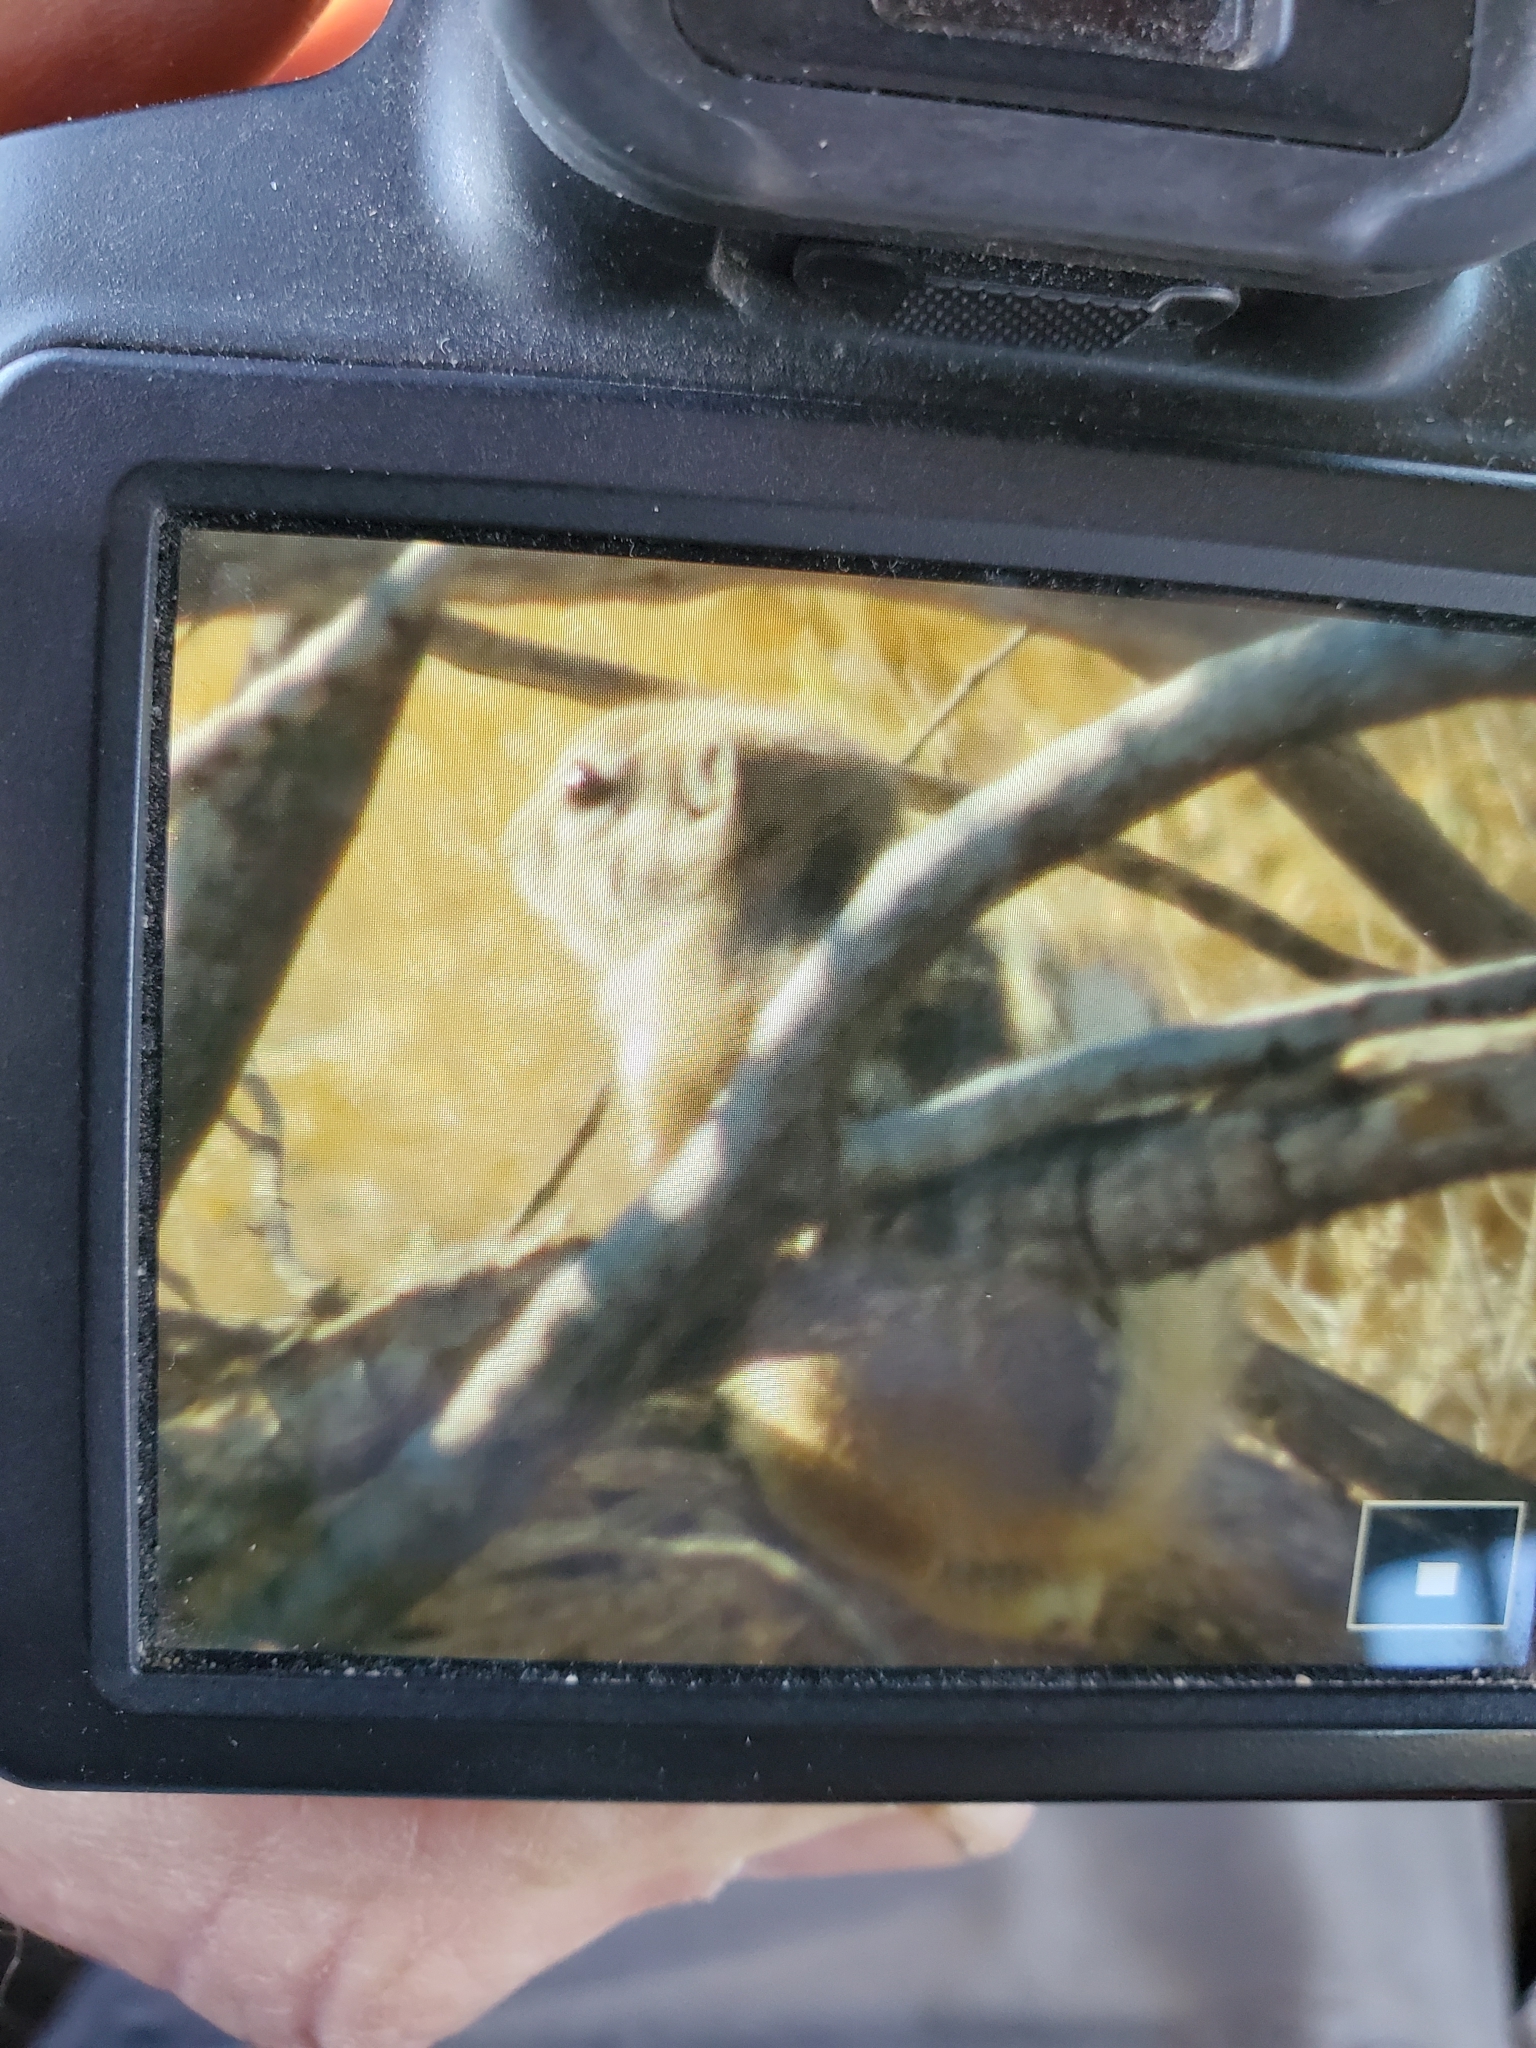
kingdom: Animalia
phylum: Chordata
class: Mammalia
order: Rodentia
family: Sciuridae
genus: Ammospermophilus
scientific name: Ammospermophilus leucurus
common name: White-tailed antelope squirrel
